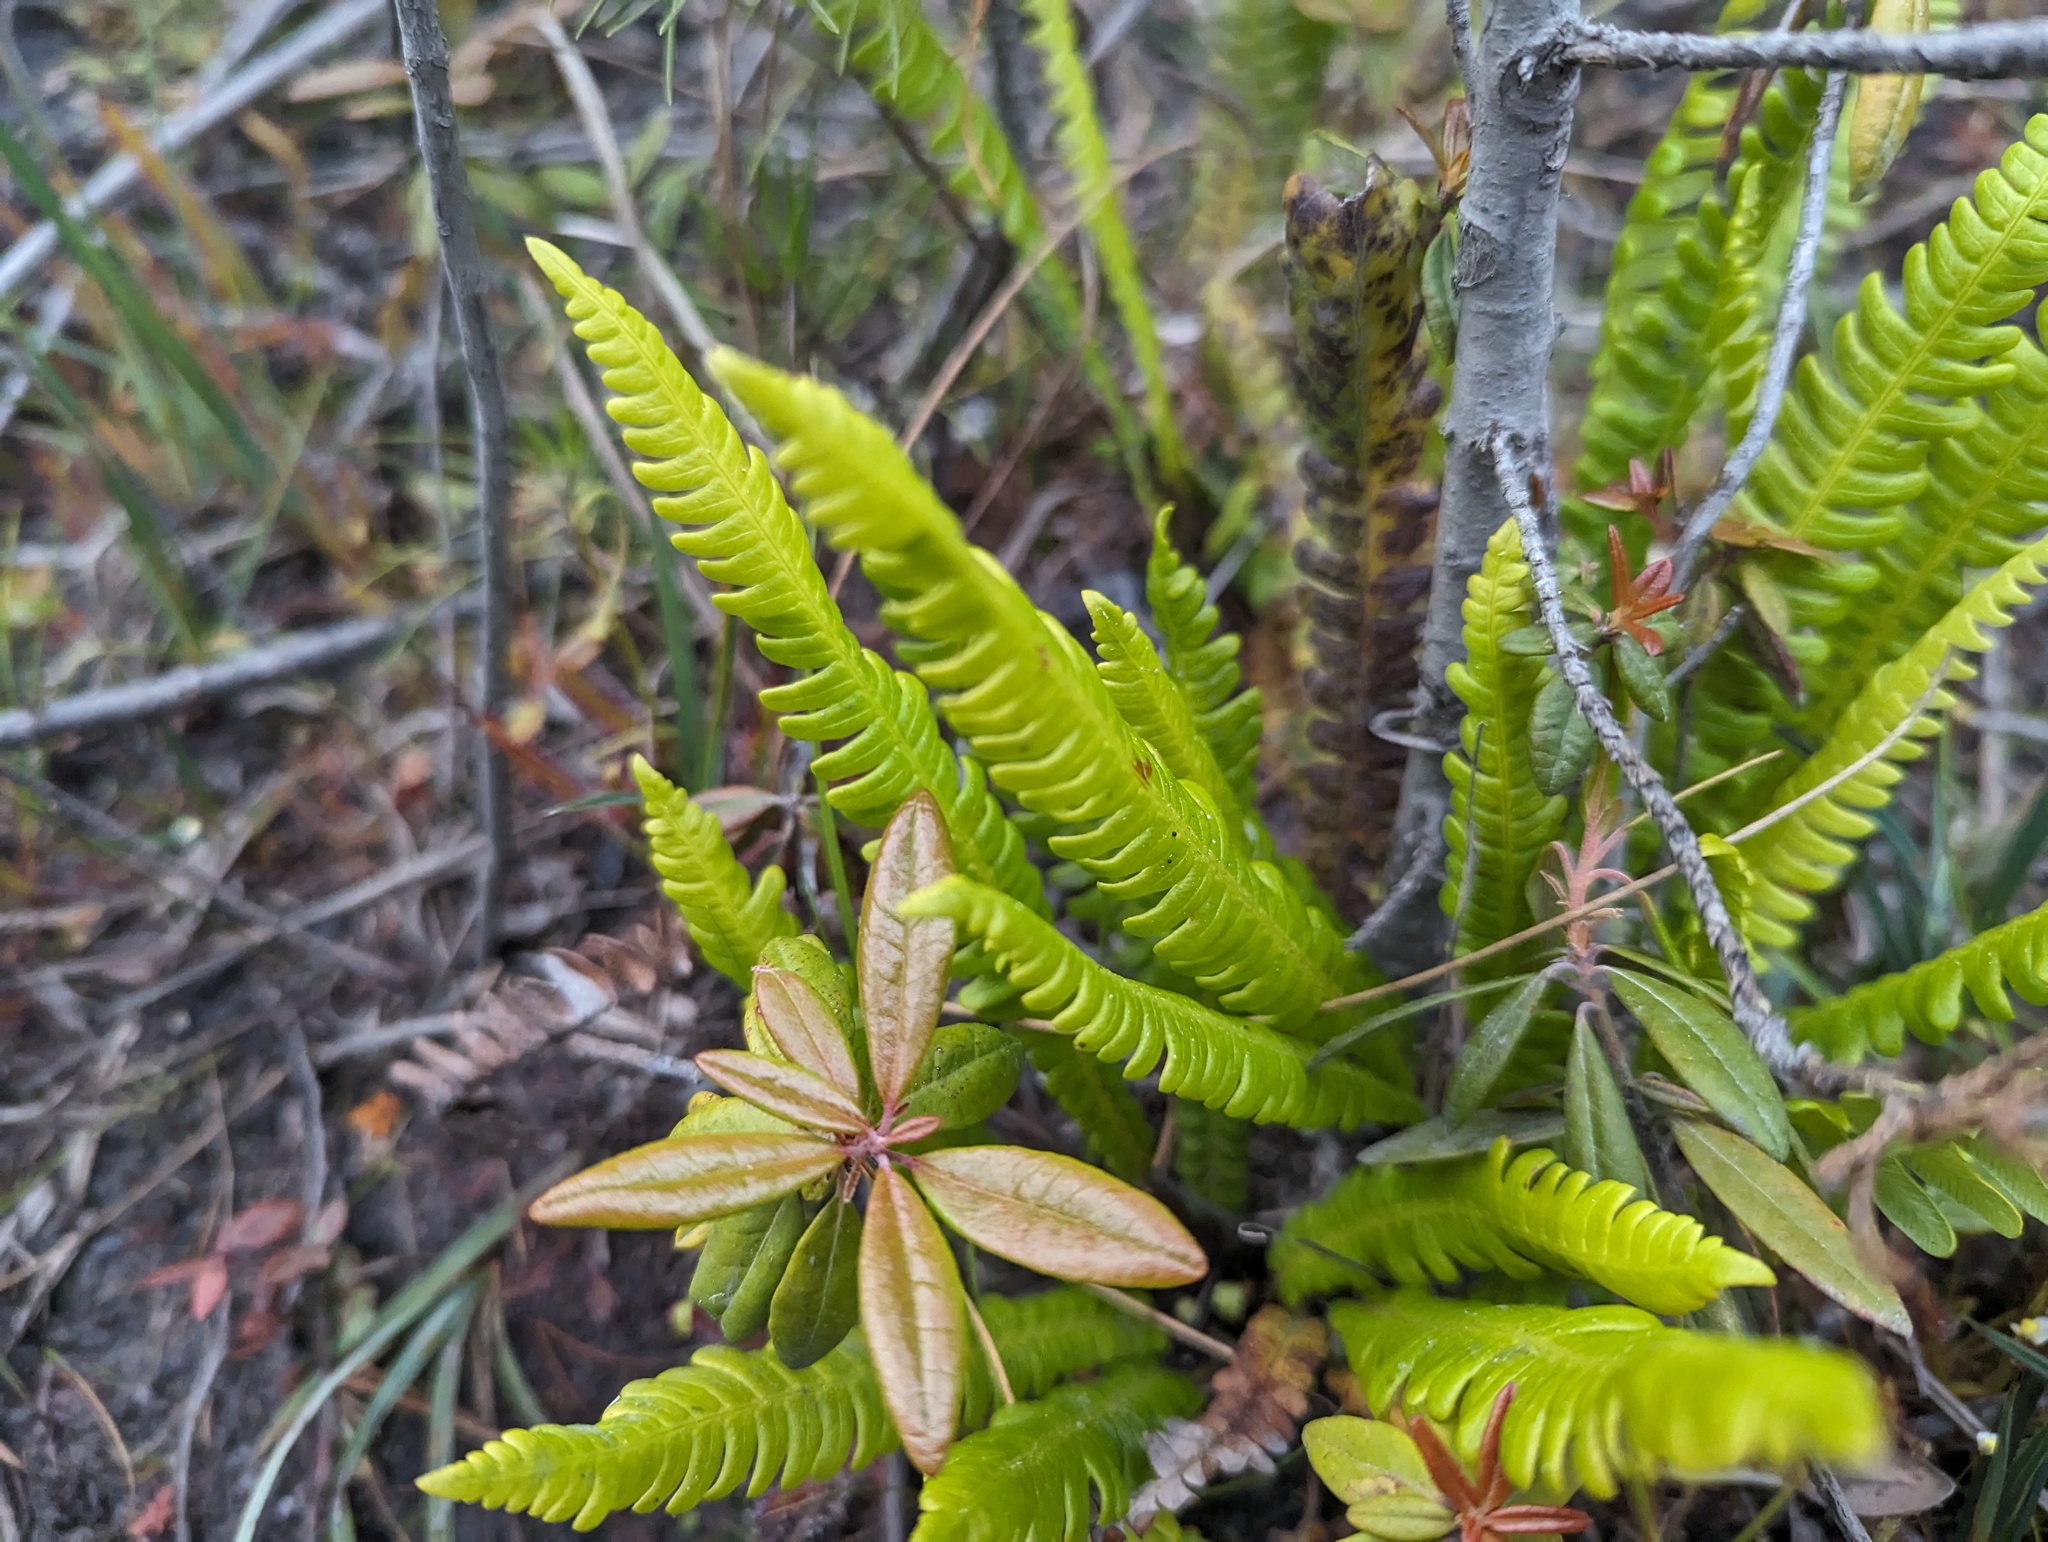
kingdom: Plantae
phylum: Tracheophyta
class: Polypodiopsida
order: Polypodiales
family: Blechnaceae
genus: Struthiopteris
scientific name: Struthiopteris spicant
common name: Deer fern
